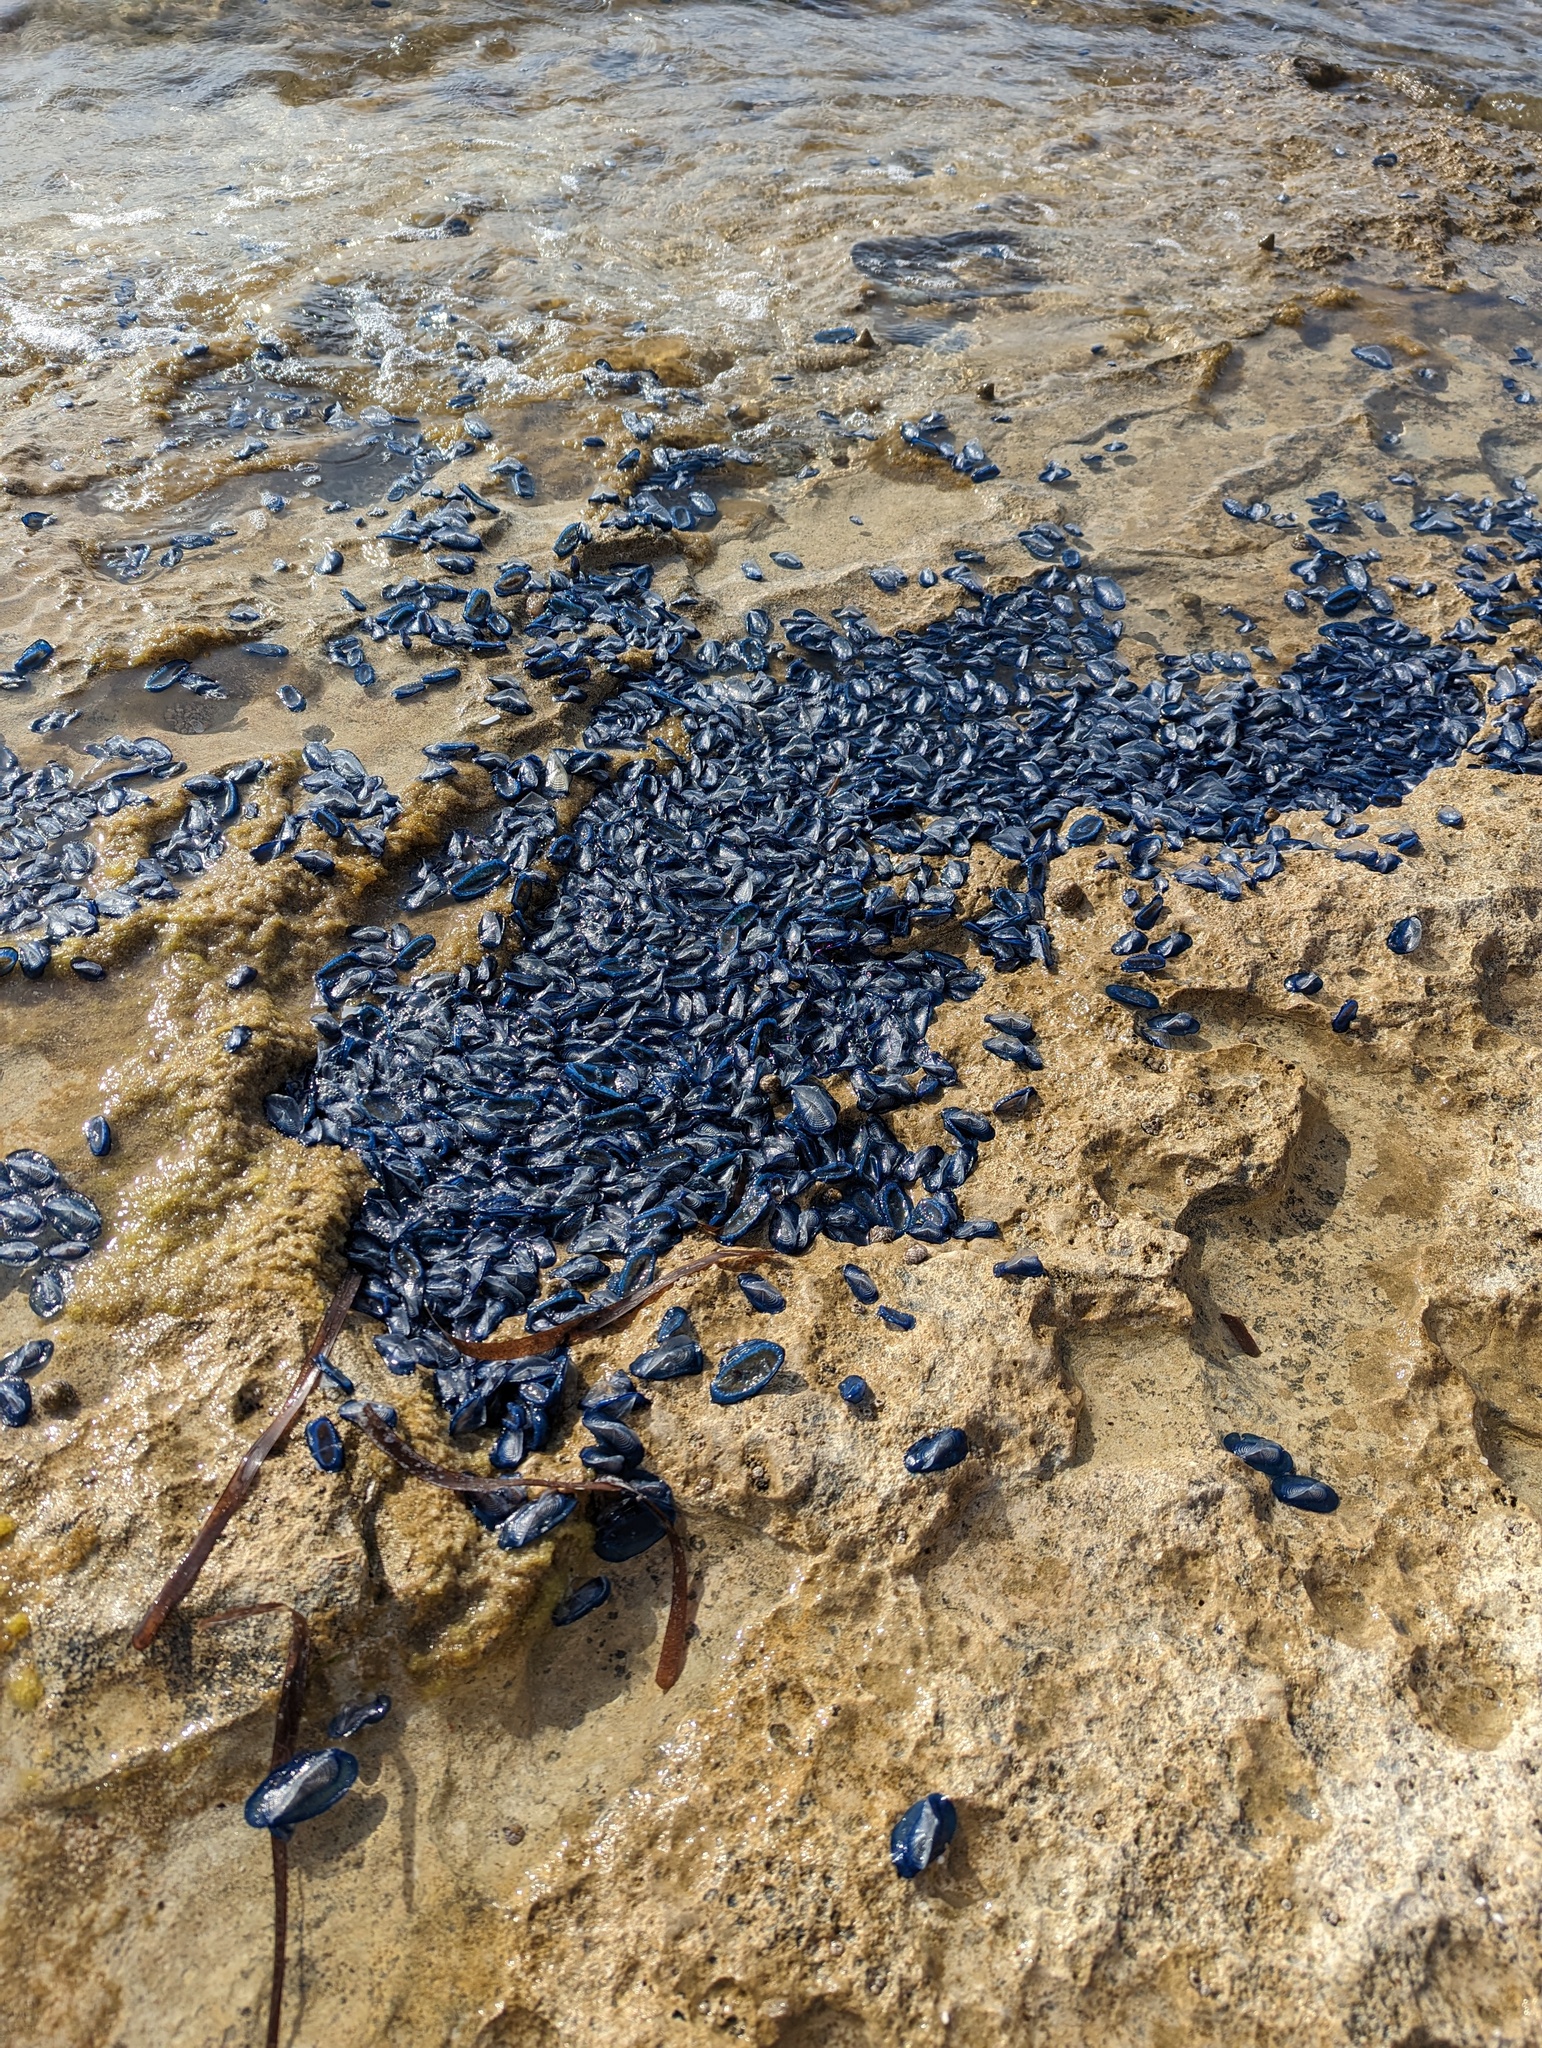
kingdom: Animalia
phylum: Cnidaria
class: Hydrozoa
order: Anthoathecata
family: Porpitidae
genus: Velella
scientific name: Velella velella
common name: By-the-wind-sailor
